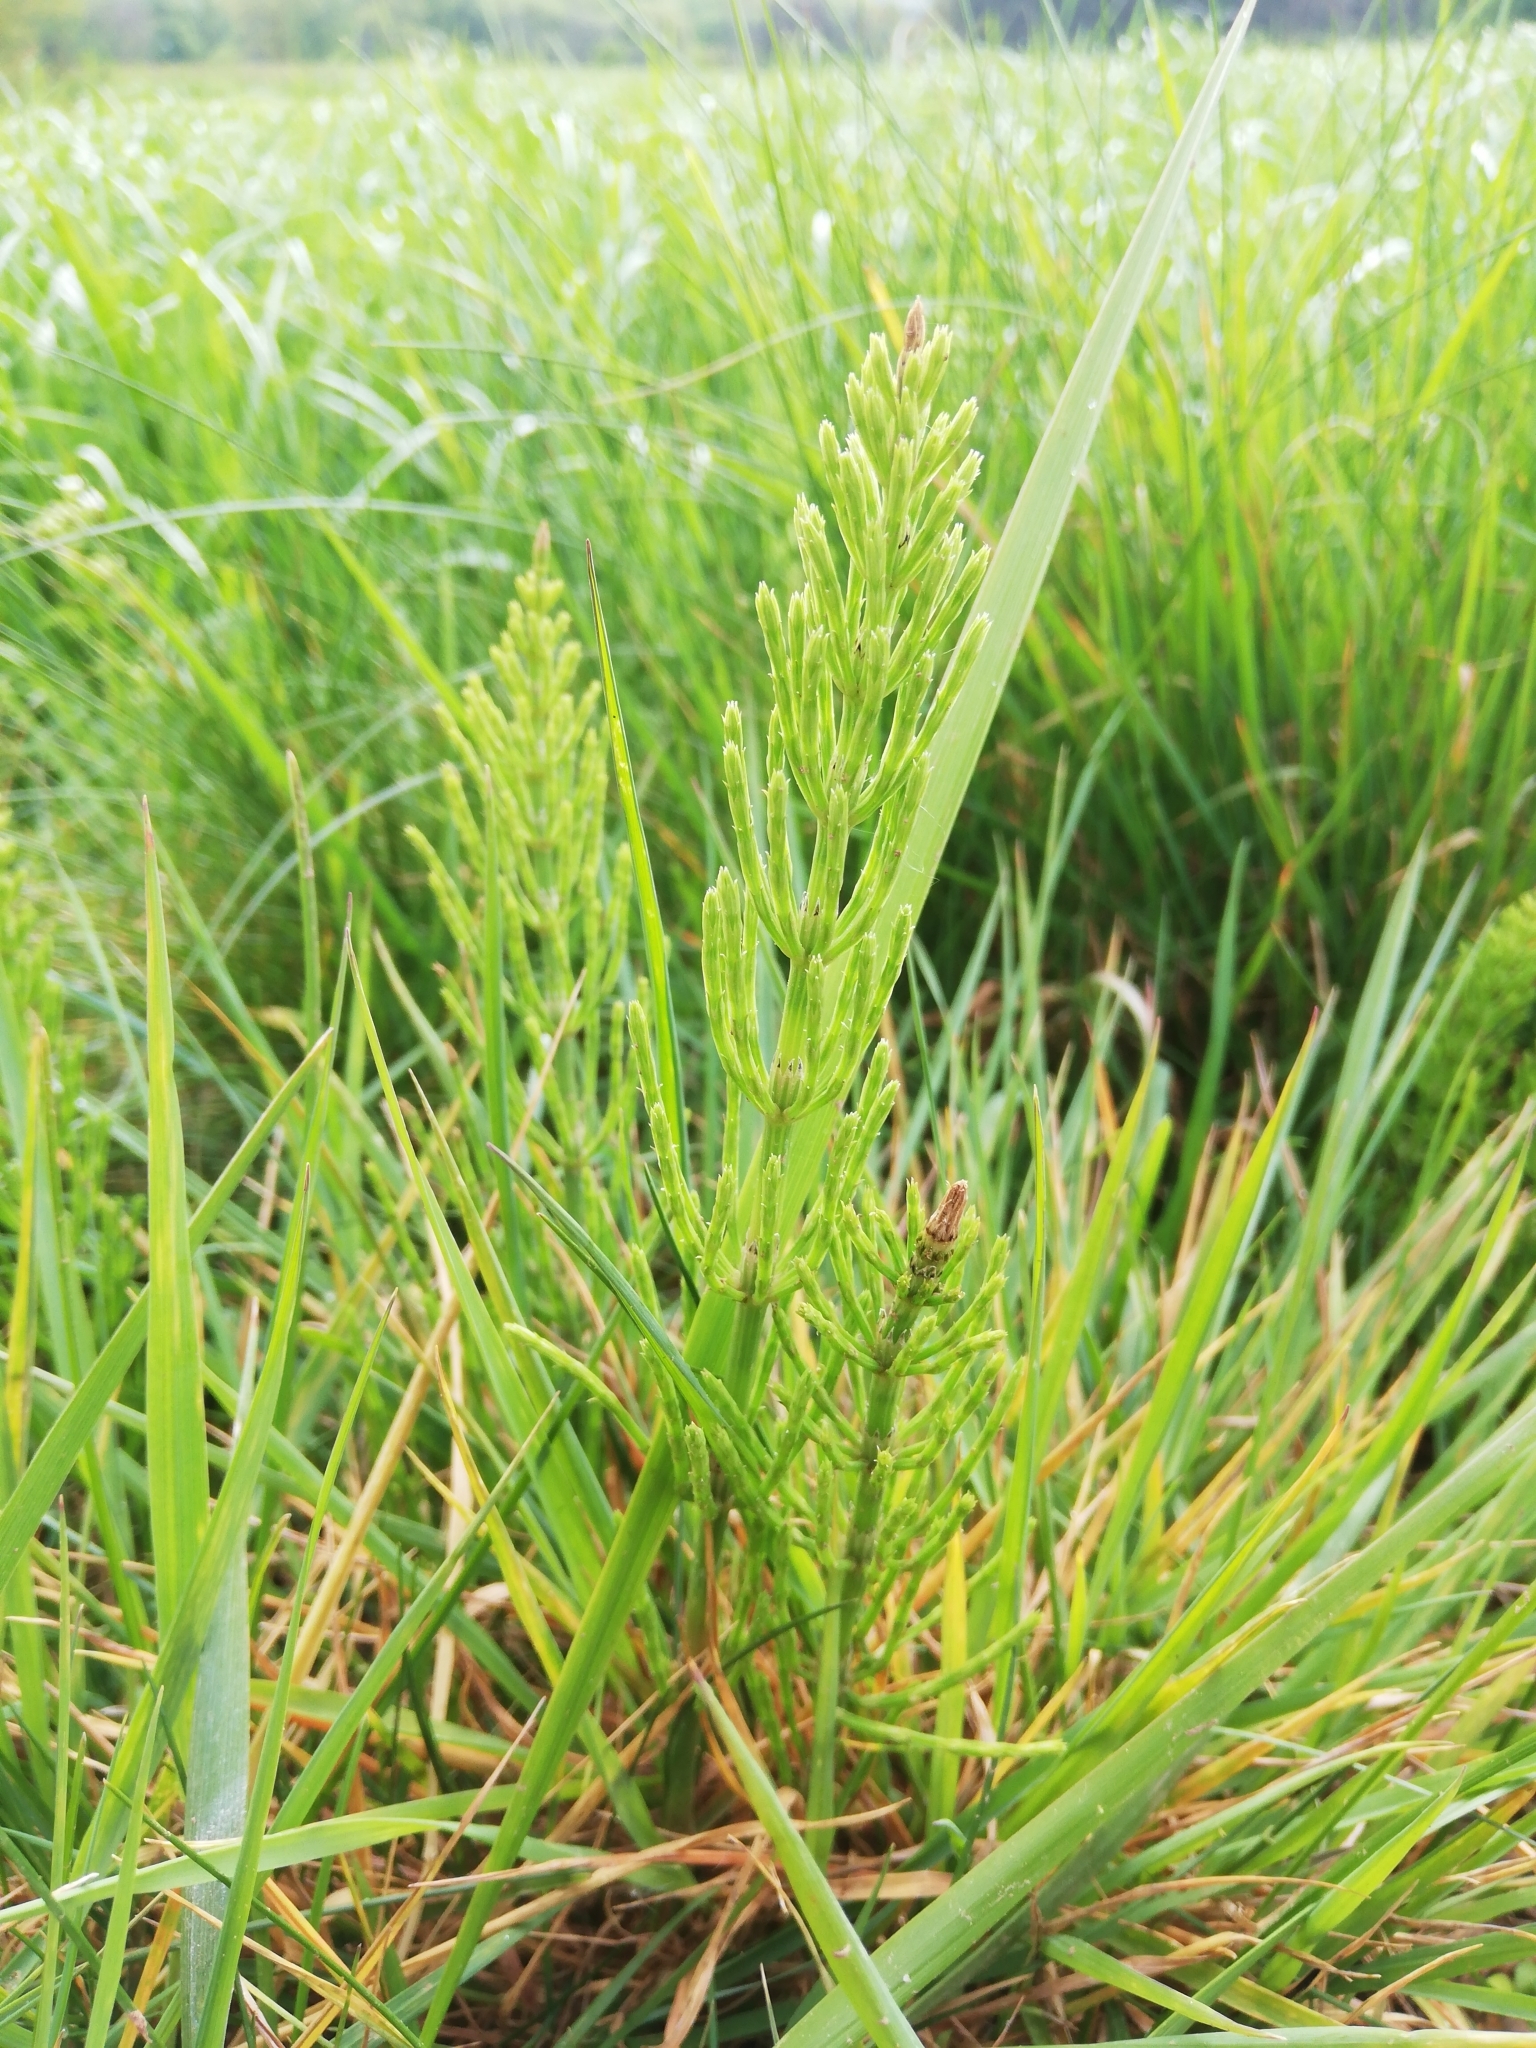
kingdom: Plantae
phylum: Tracheophyta
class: Polypodiopsida
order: Equisetales
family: Equisetaceae
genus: Equisetum
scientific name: Equisetum arvense
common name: Field horsetail
